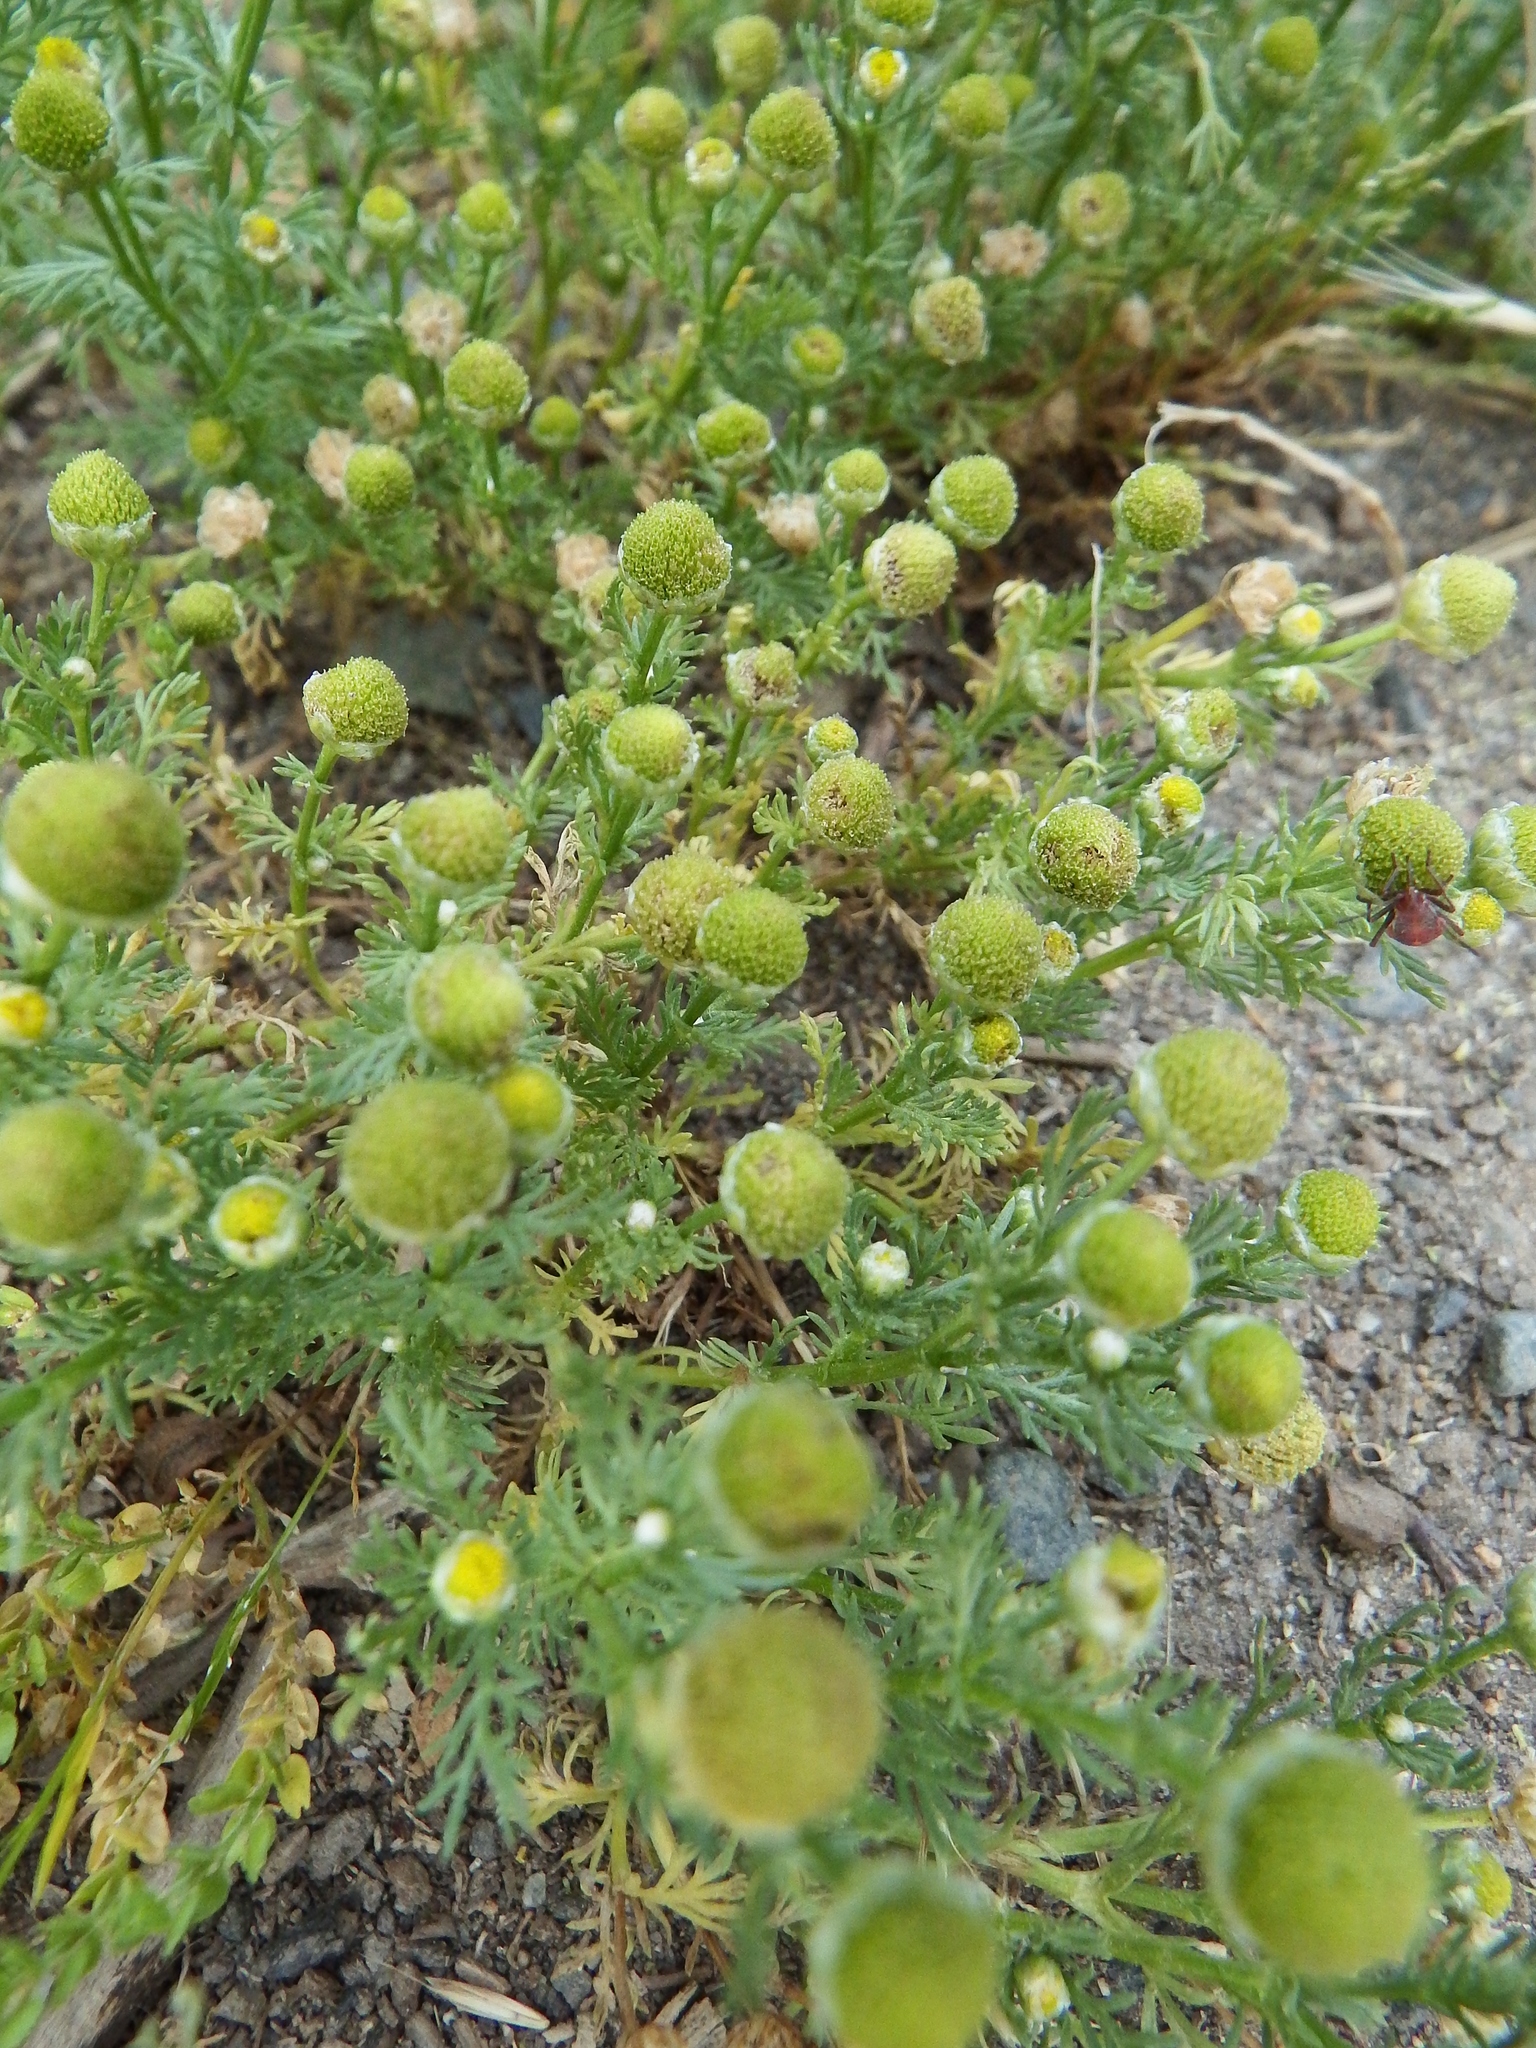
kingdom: Plantae
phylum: Tracheophyta
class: Magnoliopsida
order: Asterales
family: Asteraceae
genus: Matricaria
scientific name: Matricaria discoidea
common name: Disc mayweed
